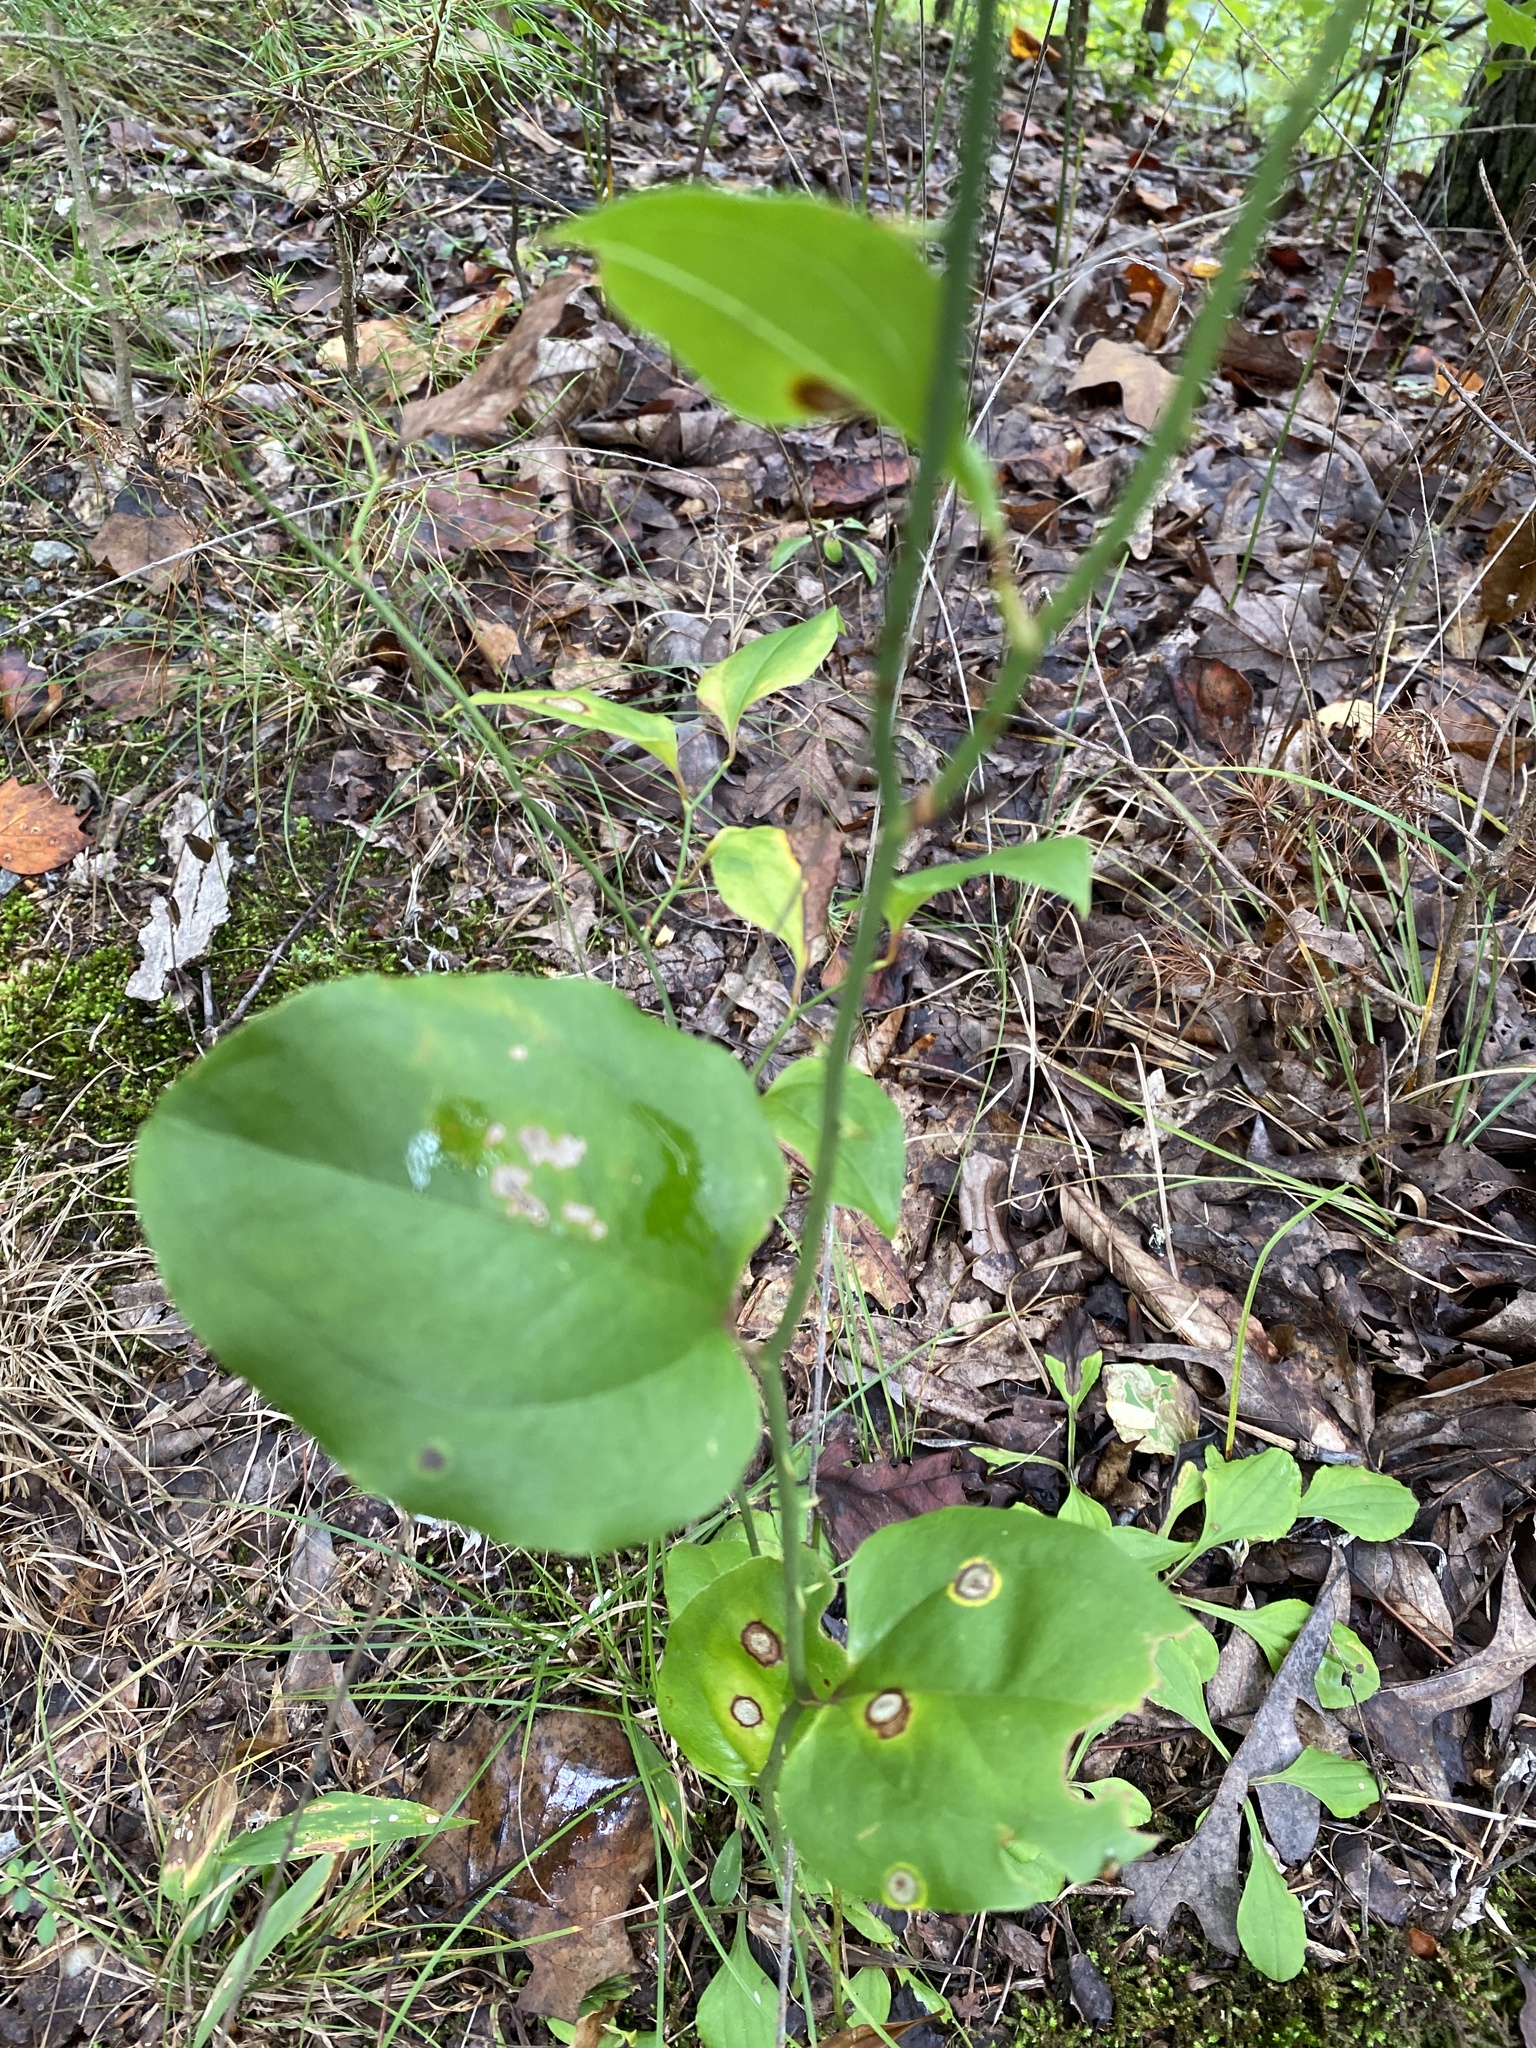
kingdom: Plantae
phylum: Tracheophyta
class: Liliopsida
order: Liliales
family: Smilacaceae
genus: Smilax
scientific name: Smilax rotundifolia
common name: Bullbriar
